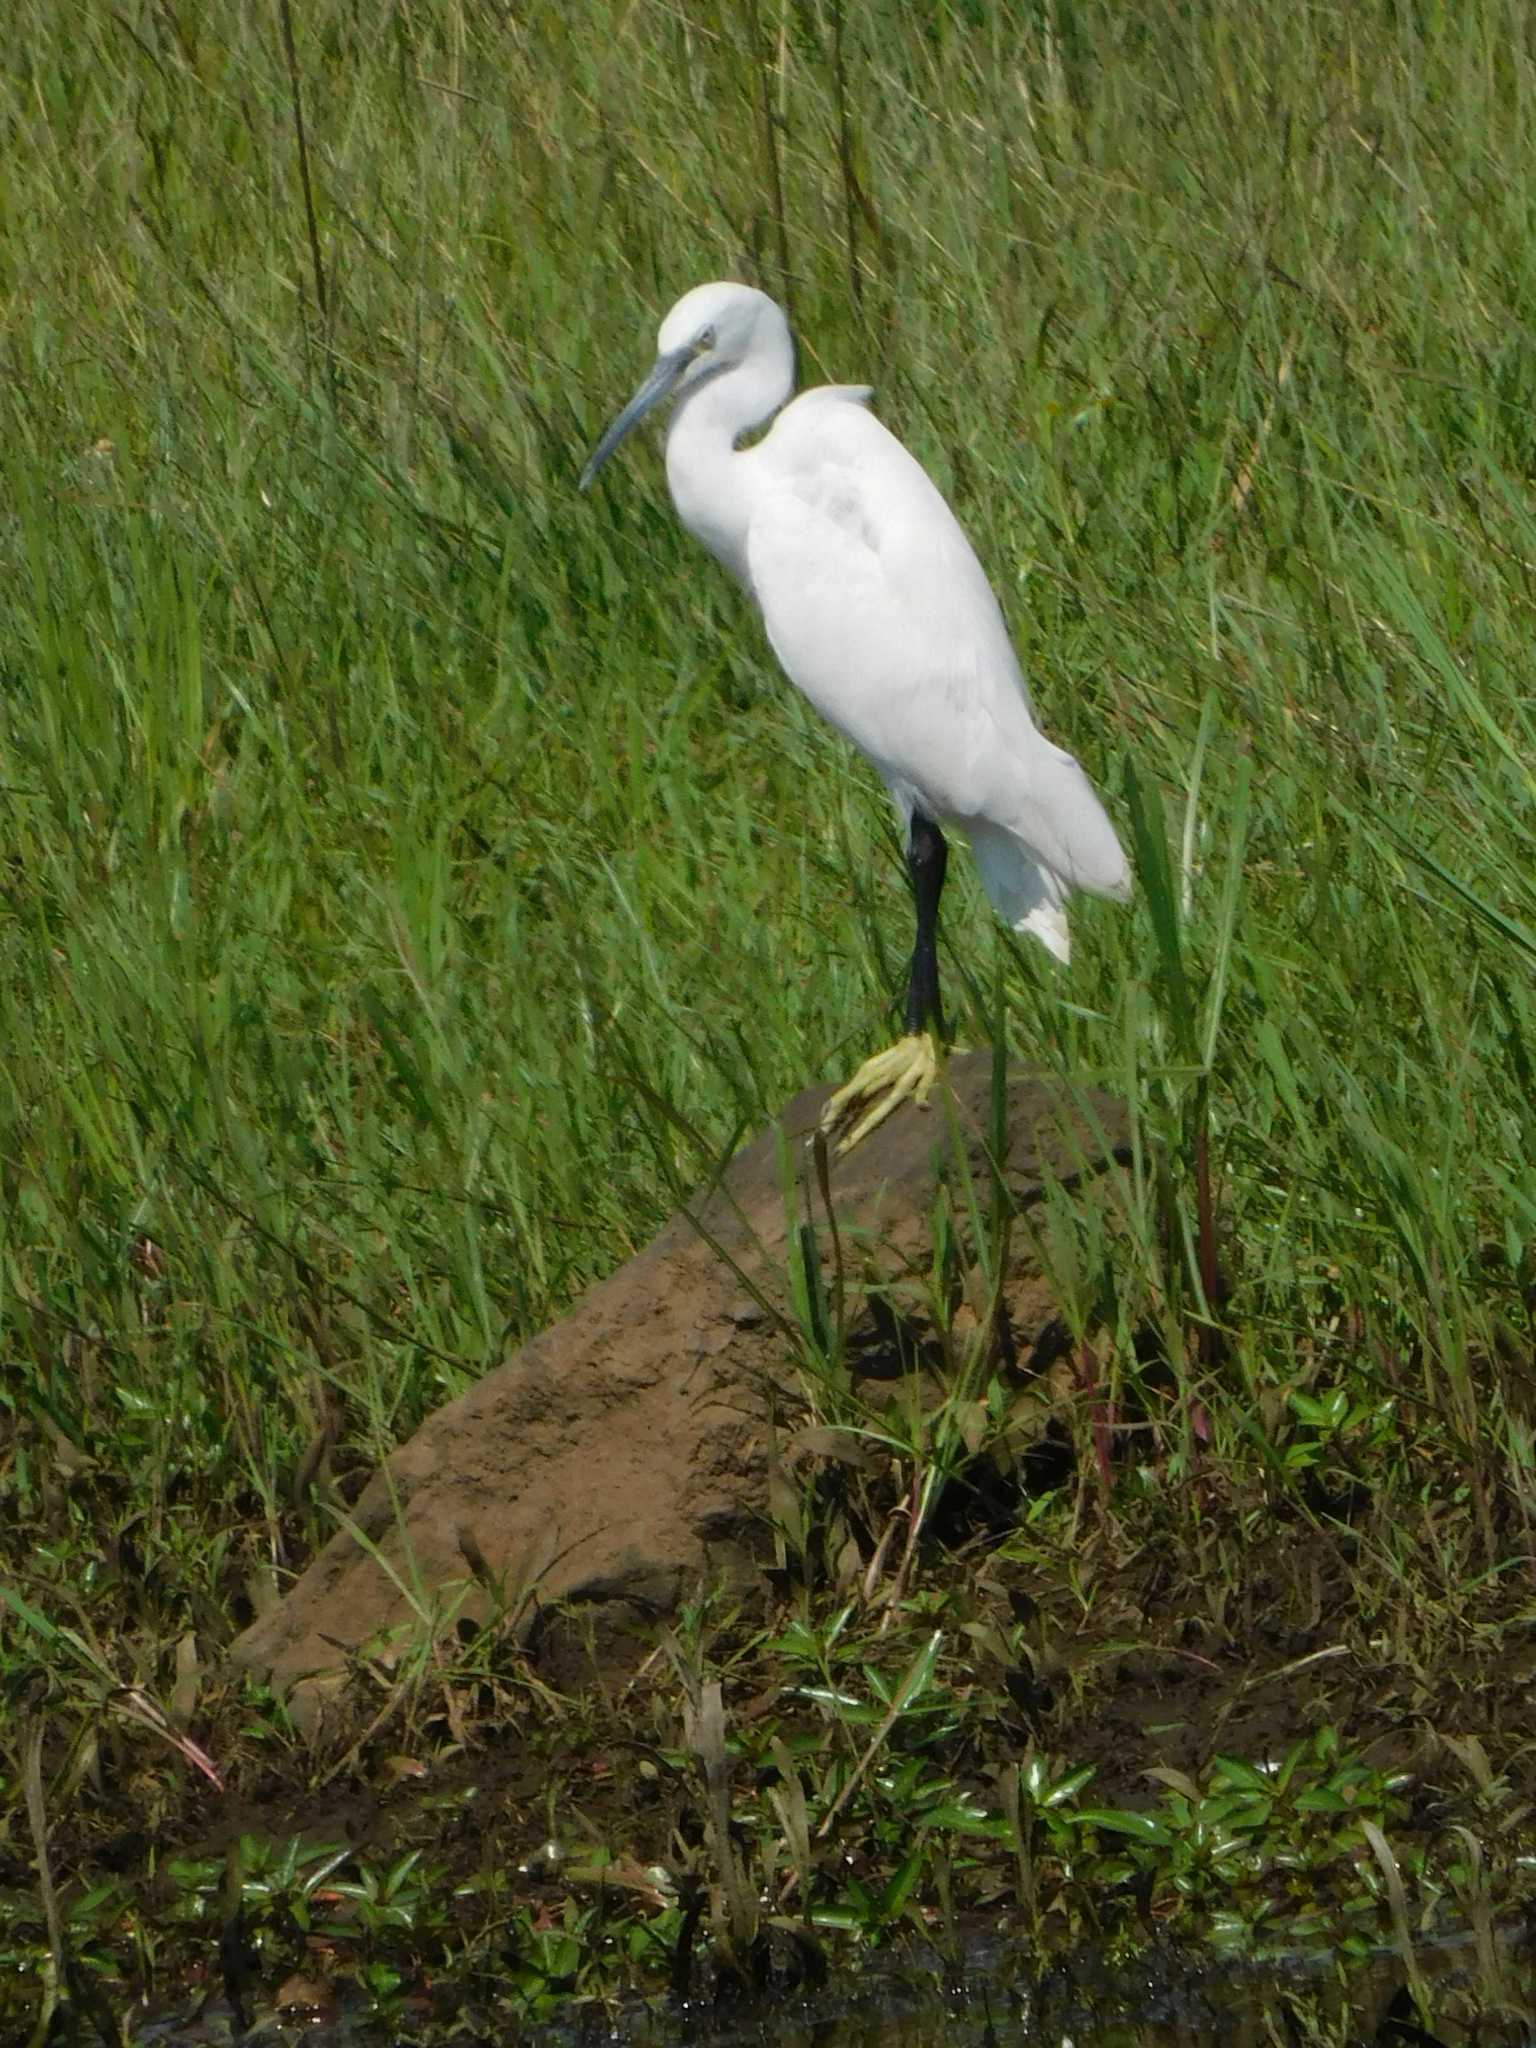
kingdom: Animalia
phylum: Chordata
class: Aves
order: Pelecaniformes
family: Ardeidae
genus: Egretta
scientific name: Egretta garzetta
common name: Little egret
